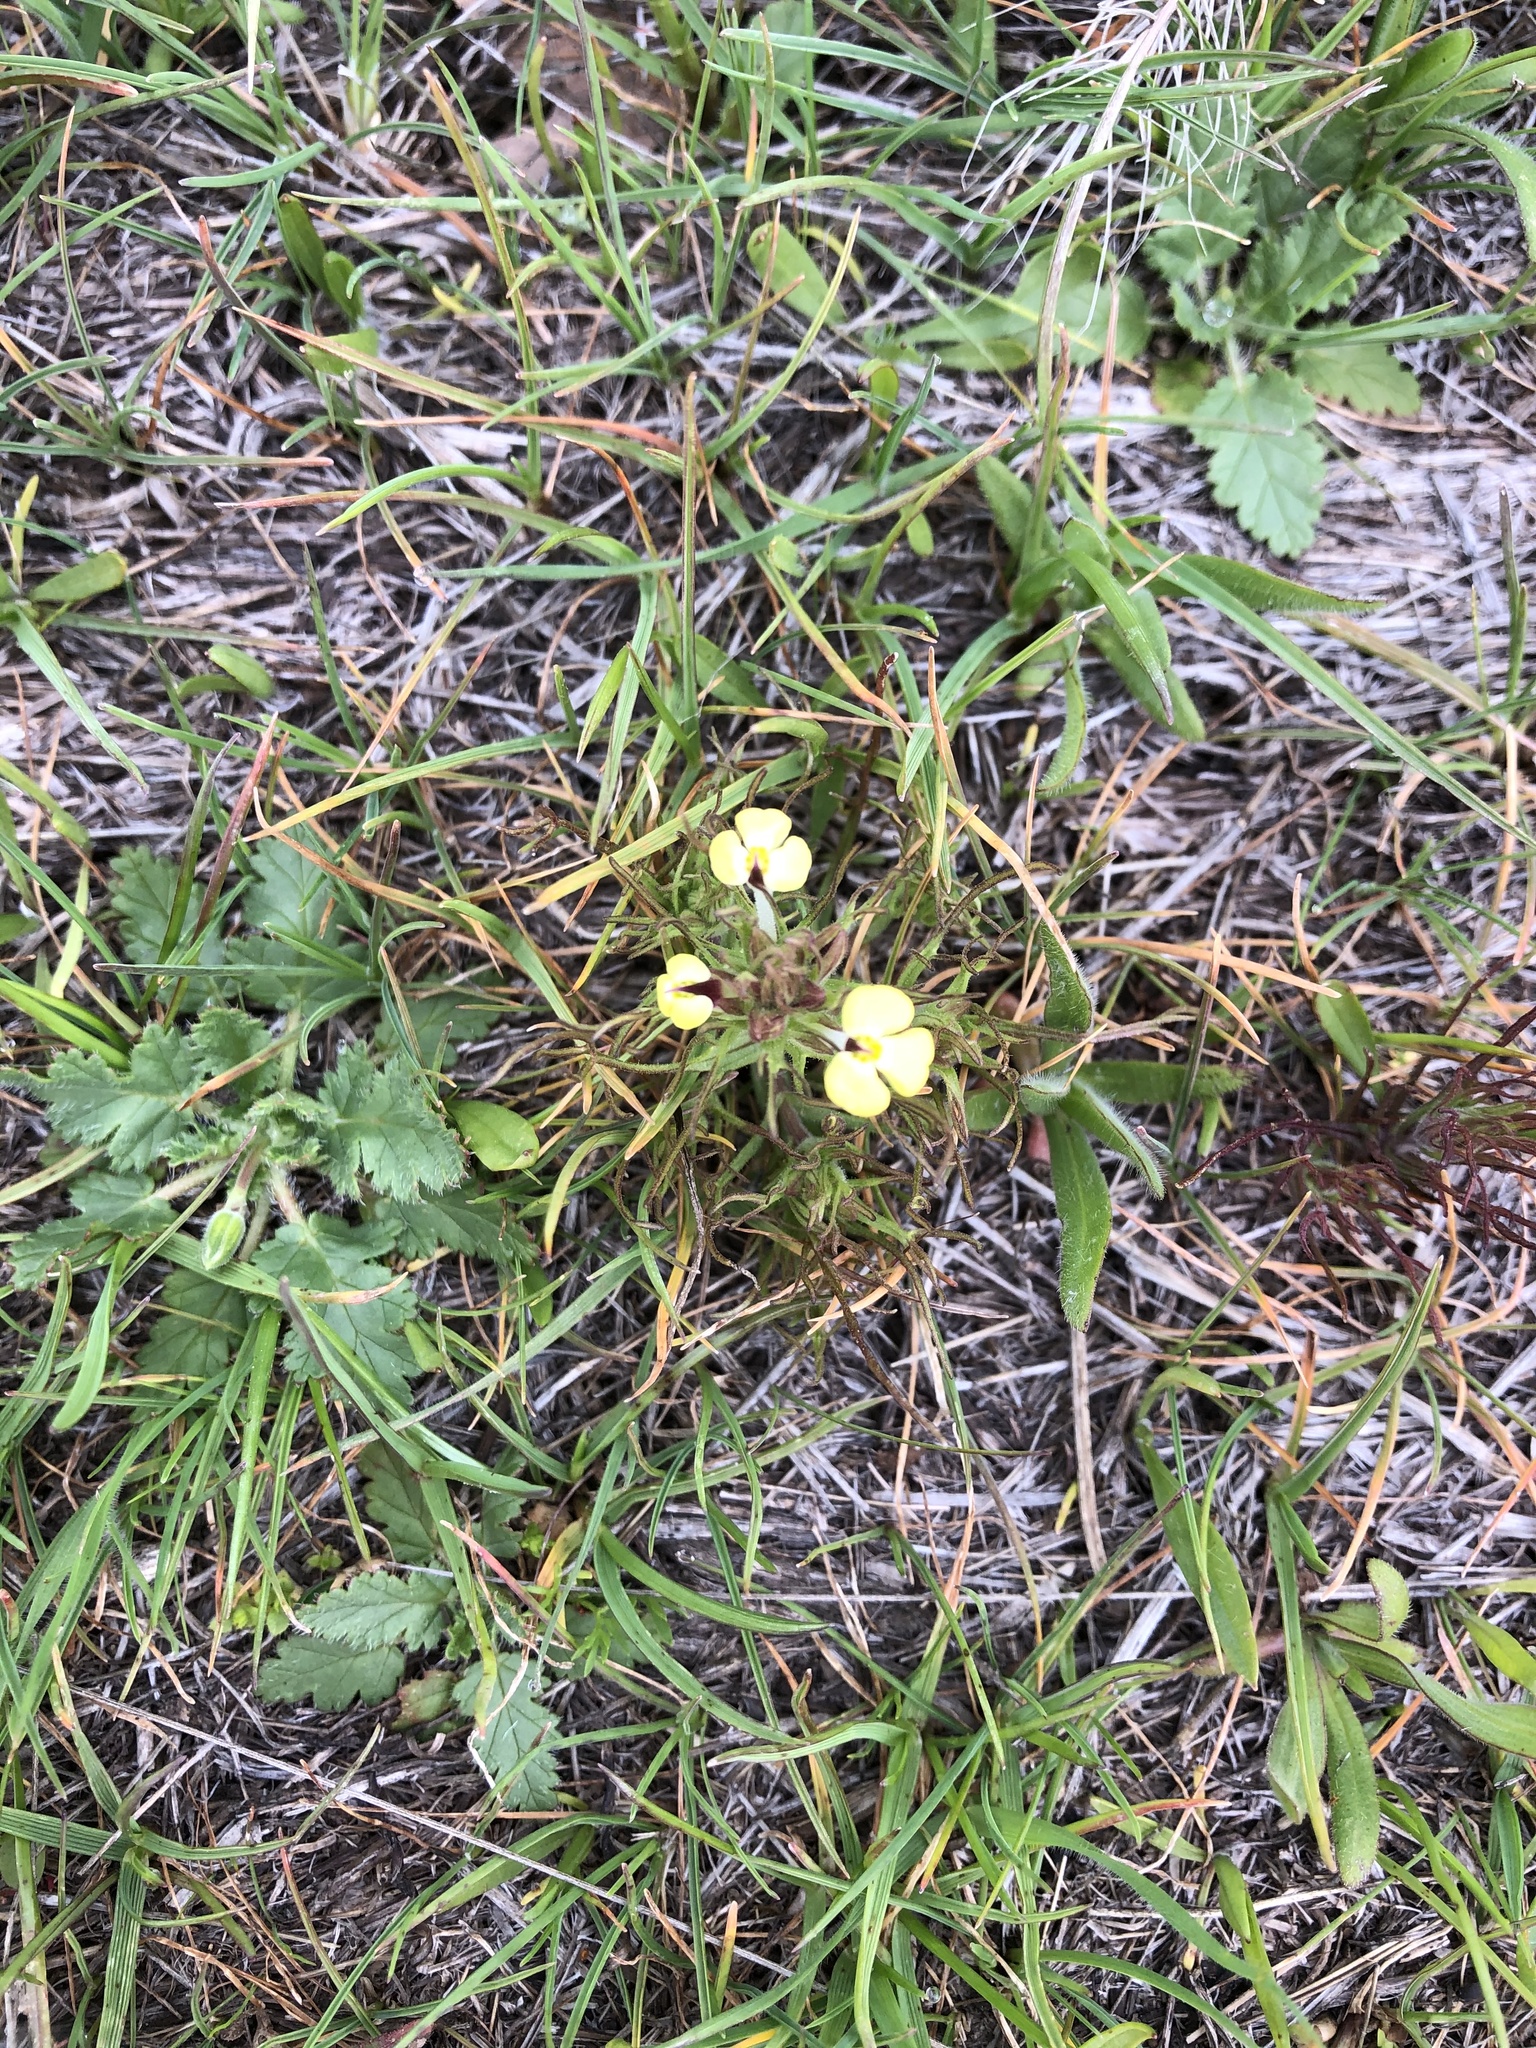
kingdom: Plantae
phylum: Tracheophyta
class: Magnoliopsida
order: Lamiales
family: Orobanchaceae
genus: Triphysaria
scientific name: Triphysaria eriantha
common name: Johnny-tuck
